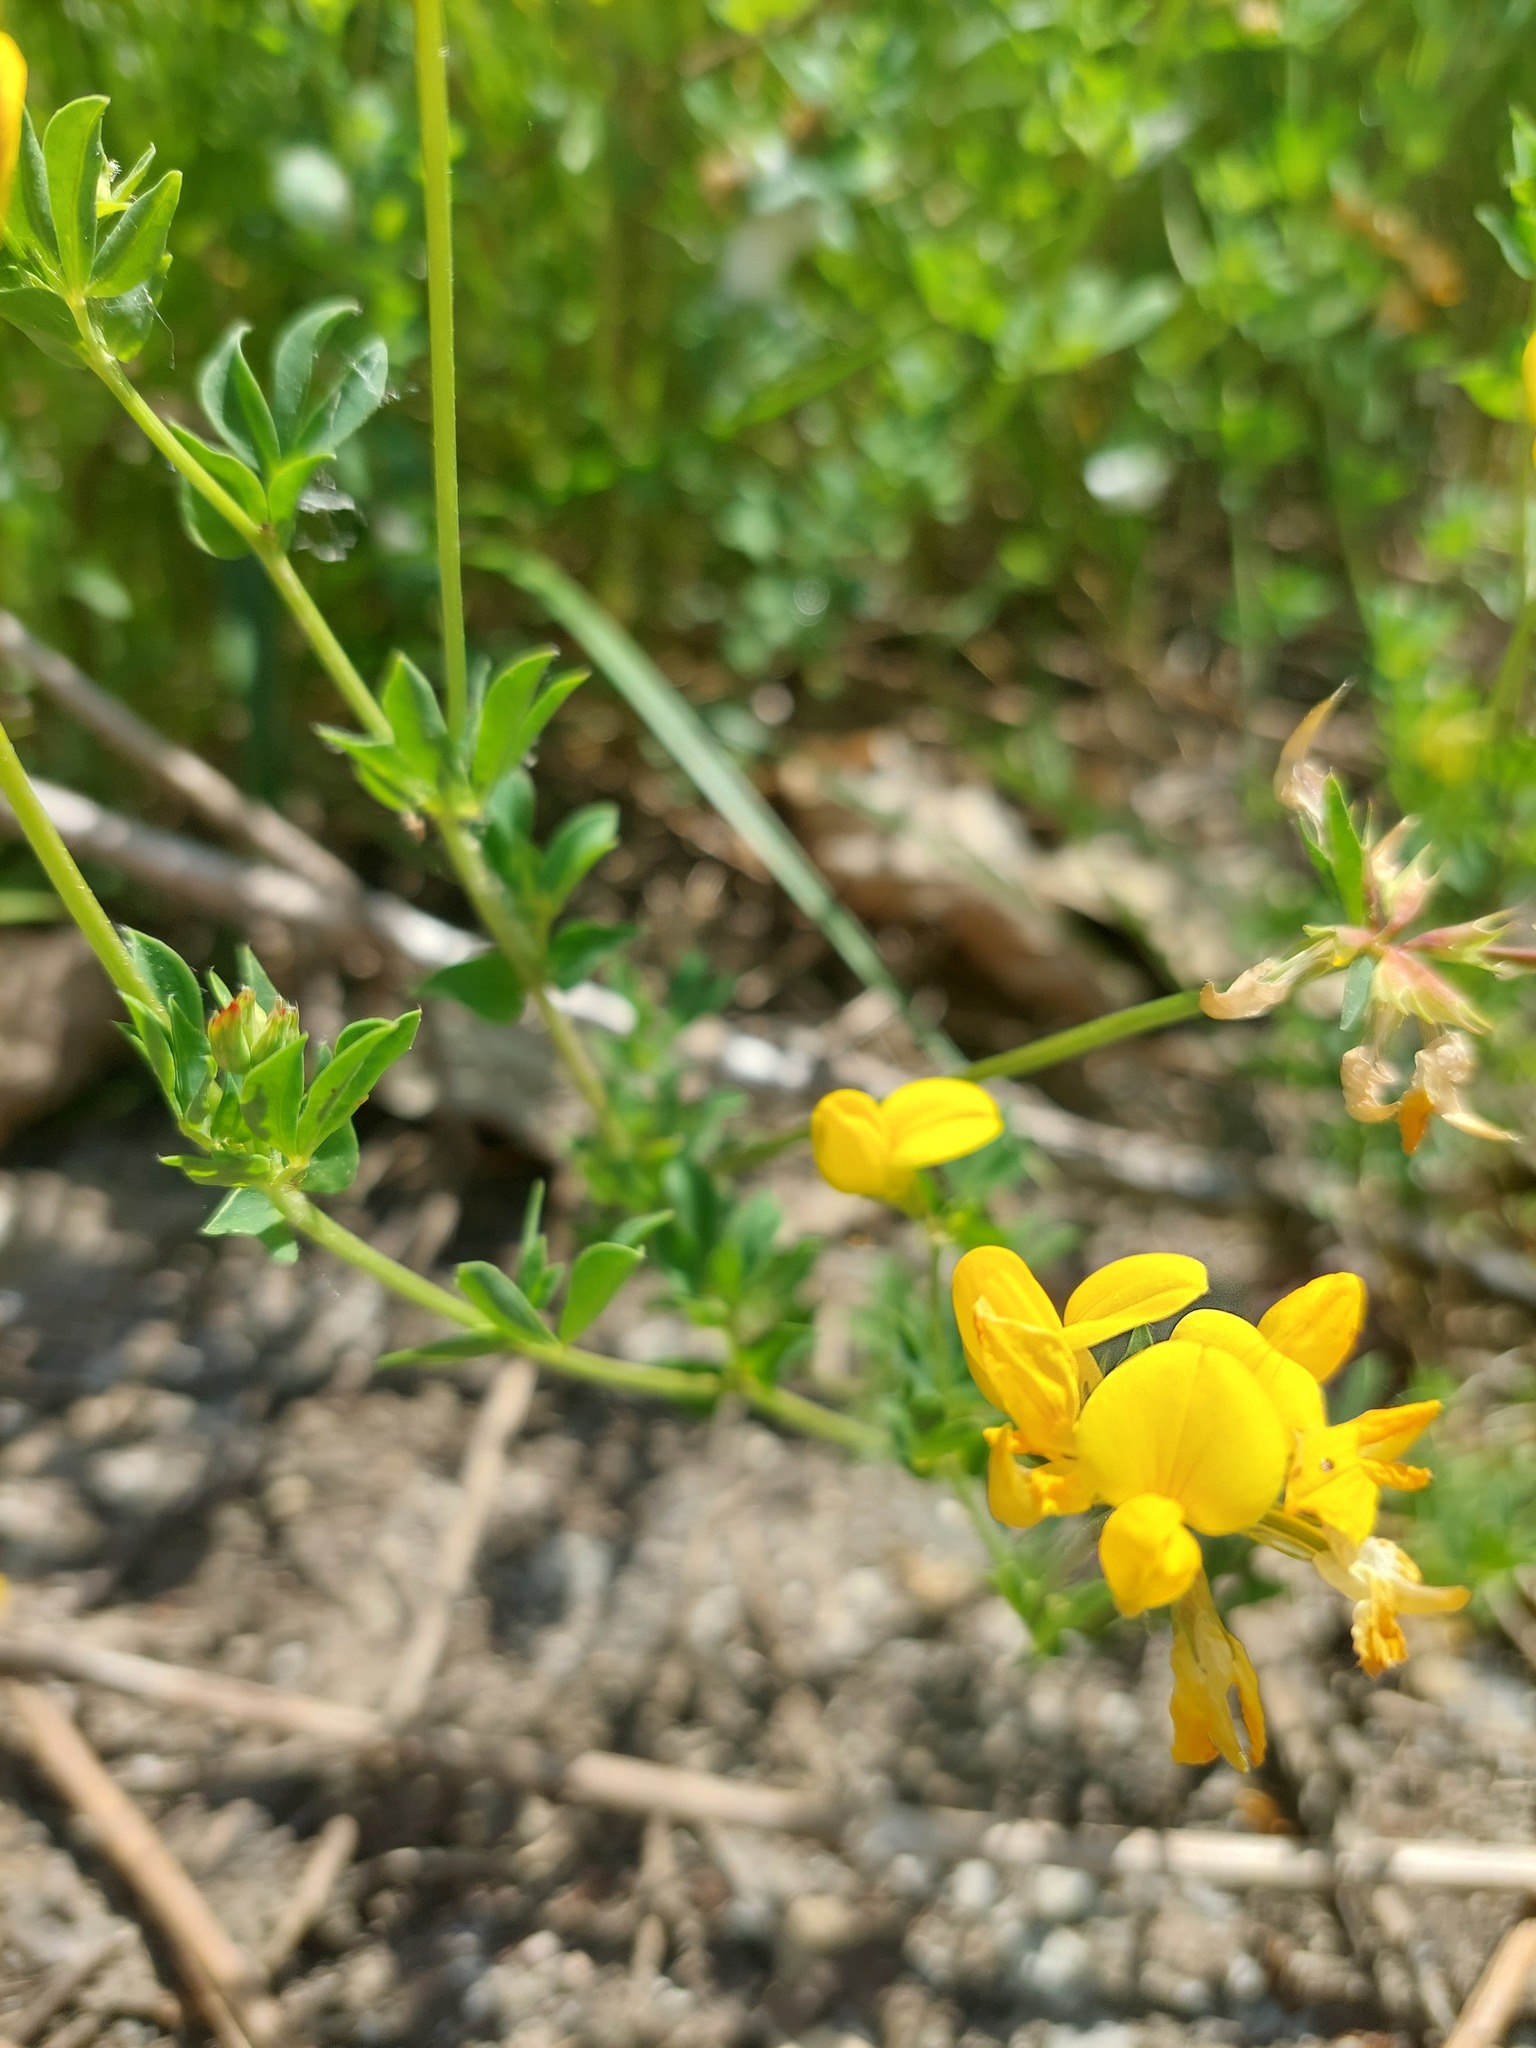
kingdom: Plantae
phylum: Tracheophyta
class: Magnoliopsida
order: Fabales
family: Fabaceae
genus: Lotus
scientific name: Lotus corniculatus
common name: Common bird's-foot-trefoil
